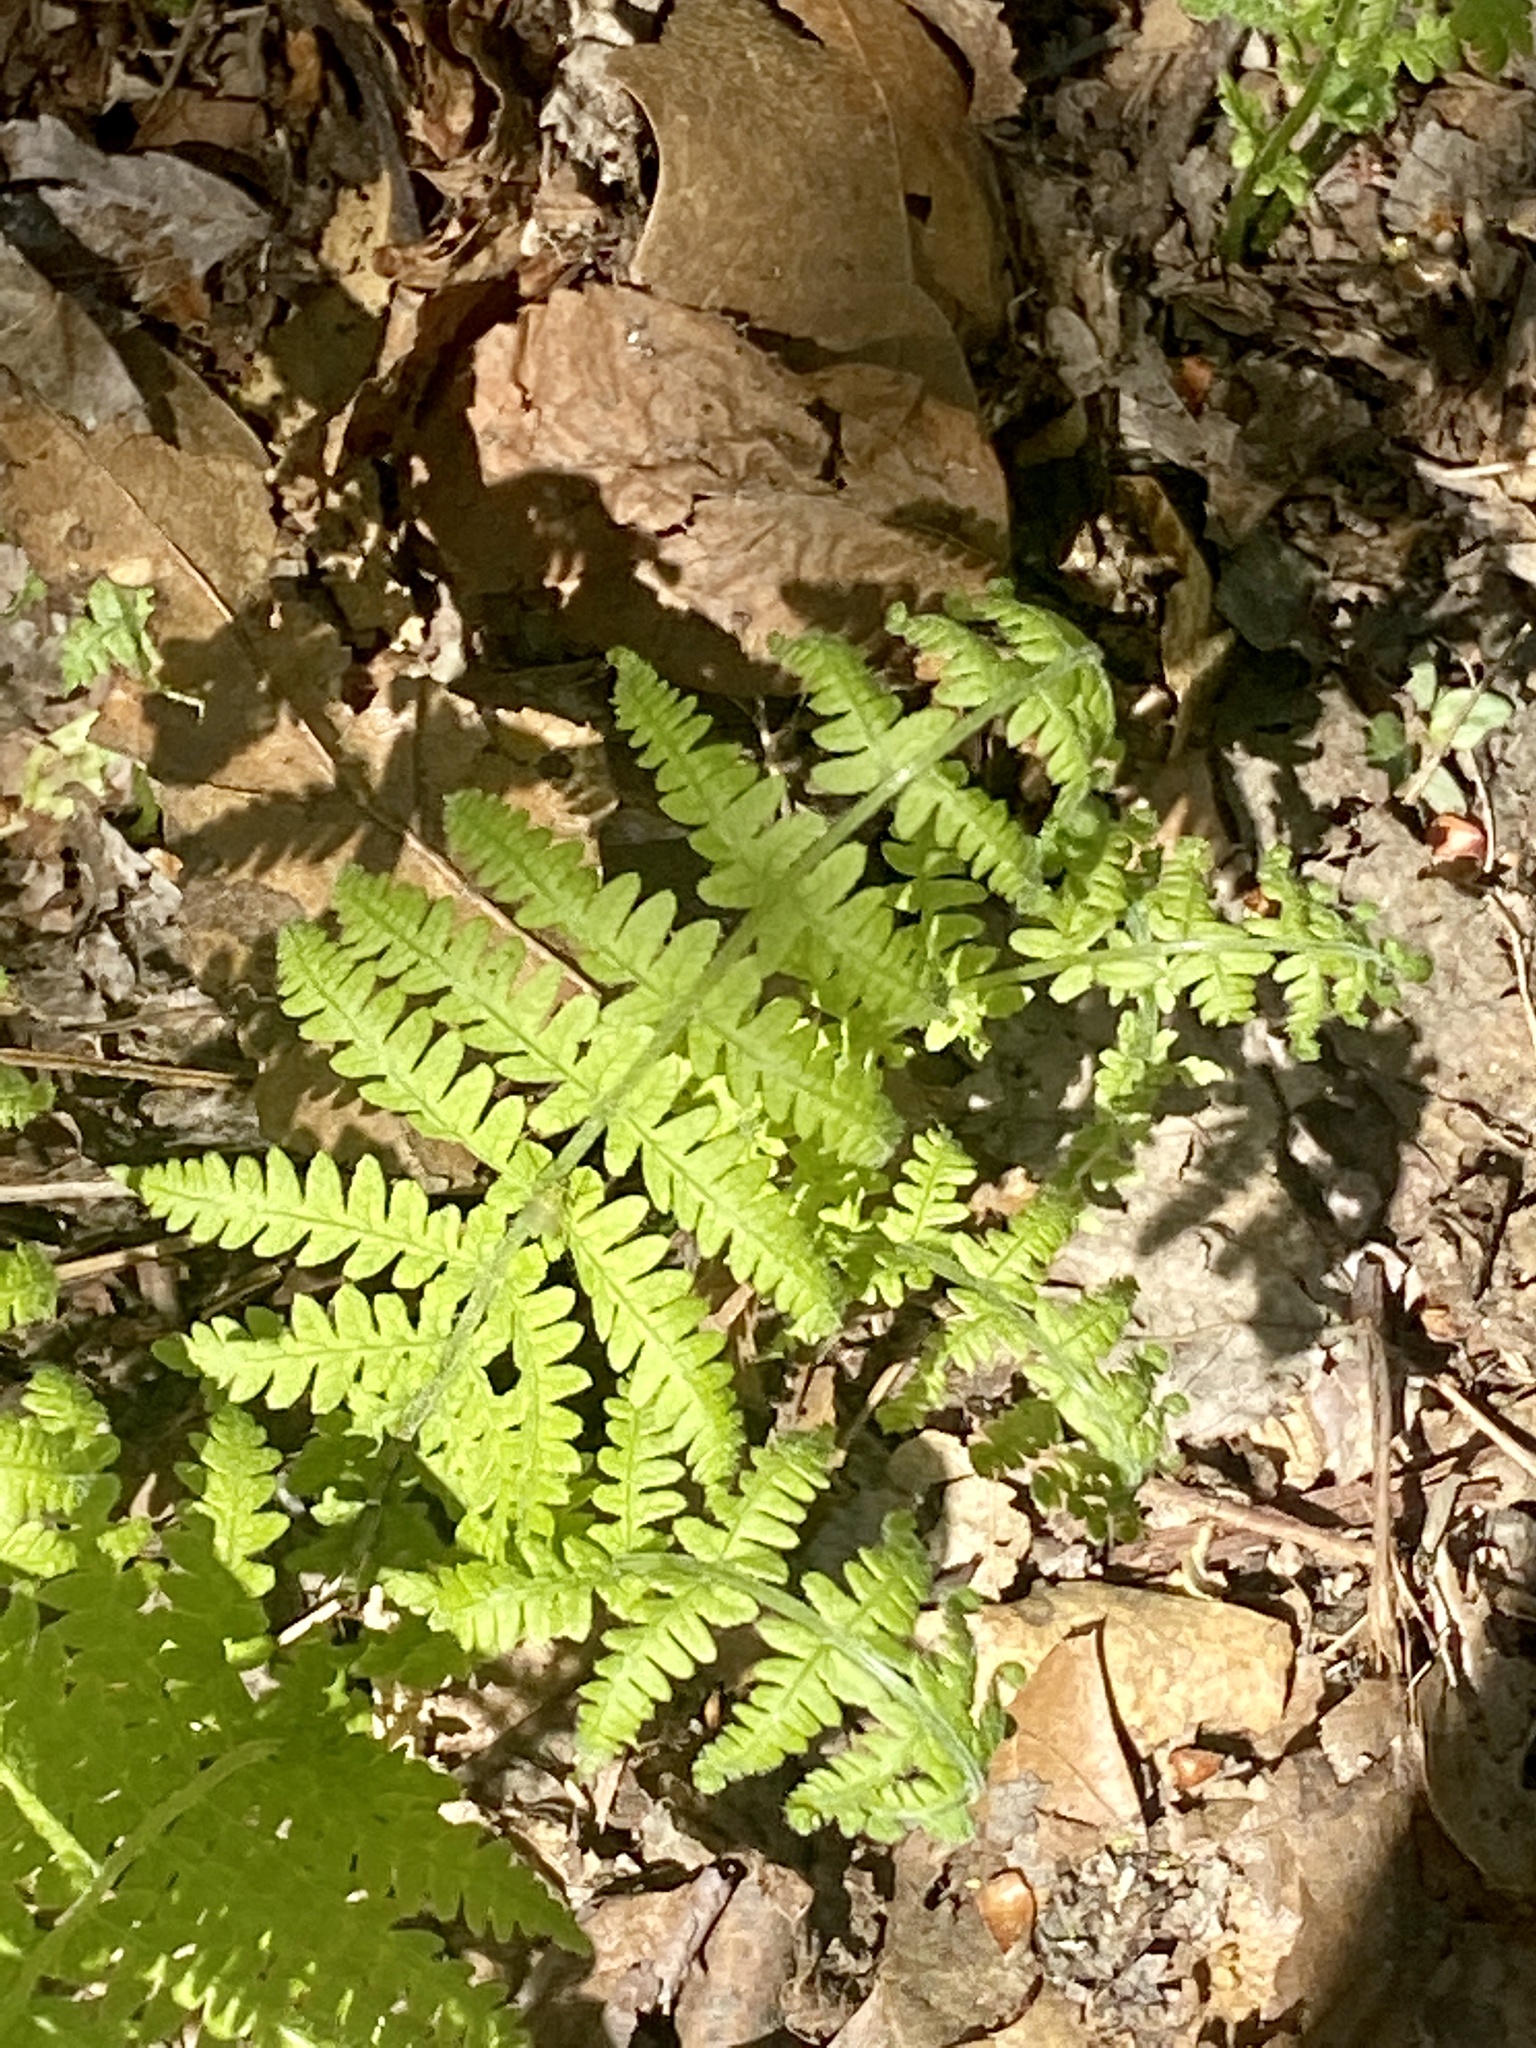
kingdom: Plantae
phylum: Tracheophyta
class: Polypodiopsida
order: Polypodiales
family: Thelypteridaceae
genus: Amauropelta
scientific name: Amauropelta noveboracensis
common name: New york fern
